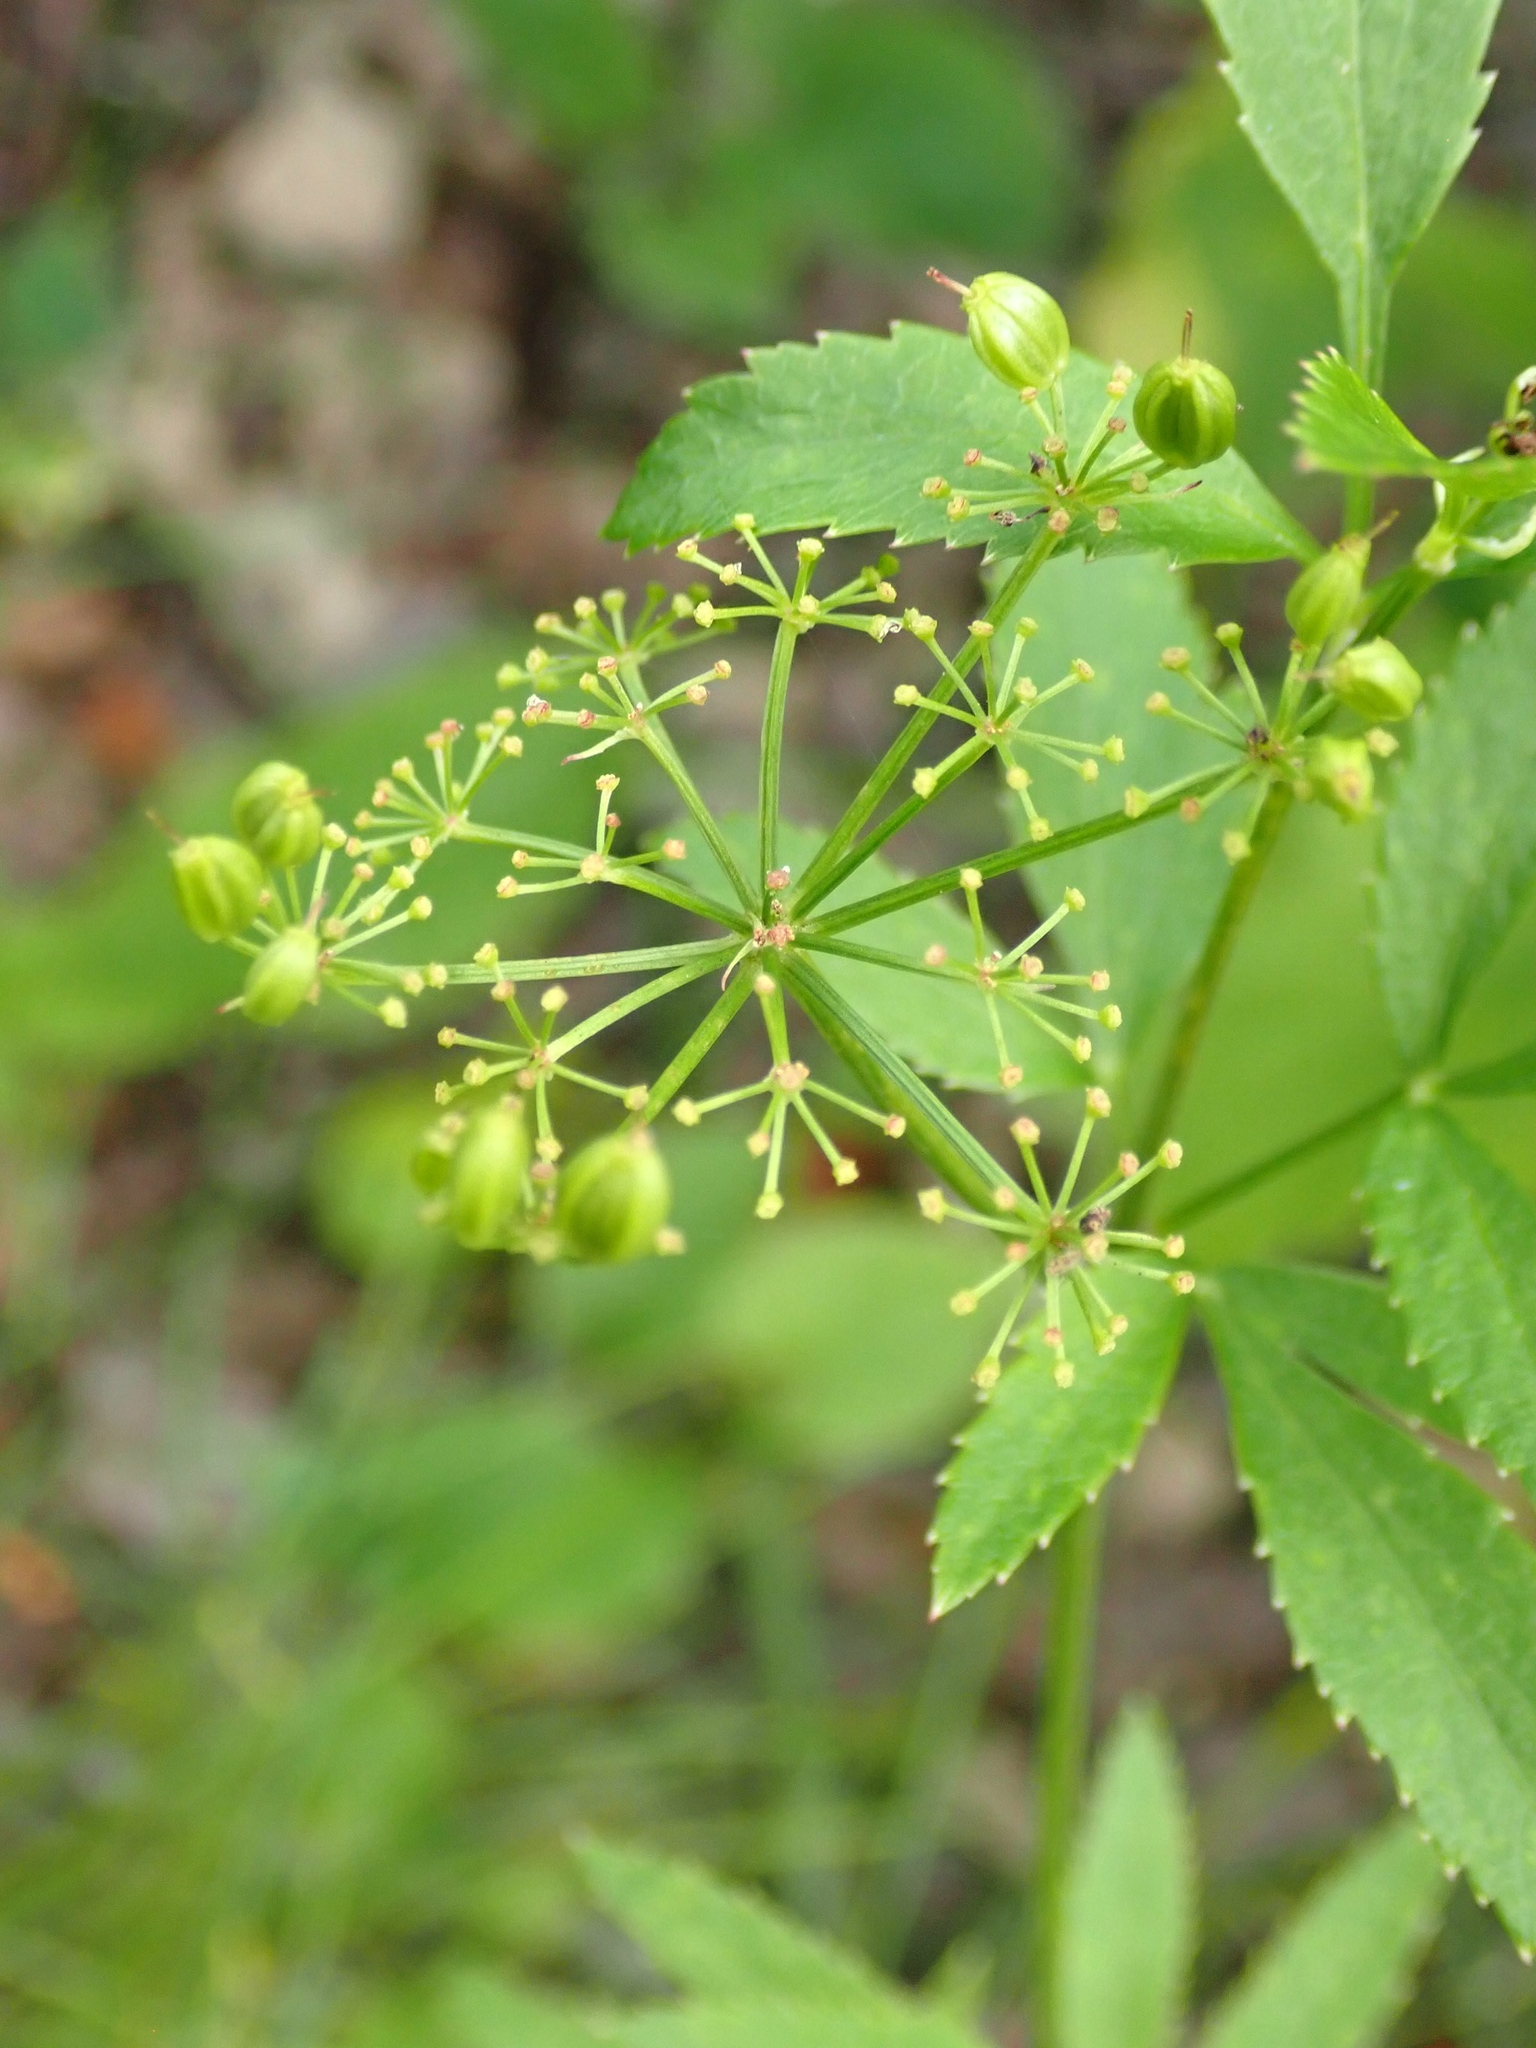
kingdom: Plantae
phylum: Tracheophyta
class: Magnoliopsida
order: Apiales
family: Apiaceae
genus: Zizia
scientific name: Zizia aurea
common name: Golden alexanders
